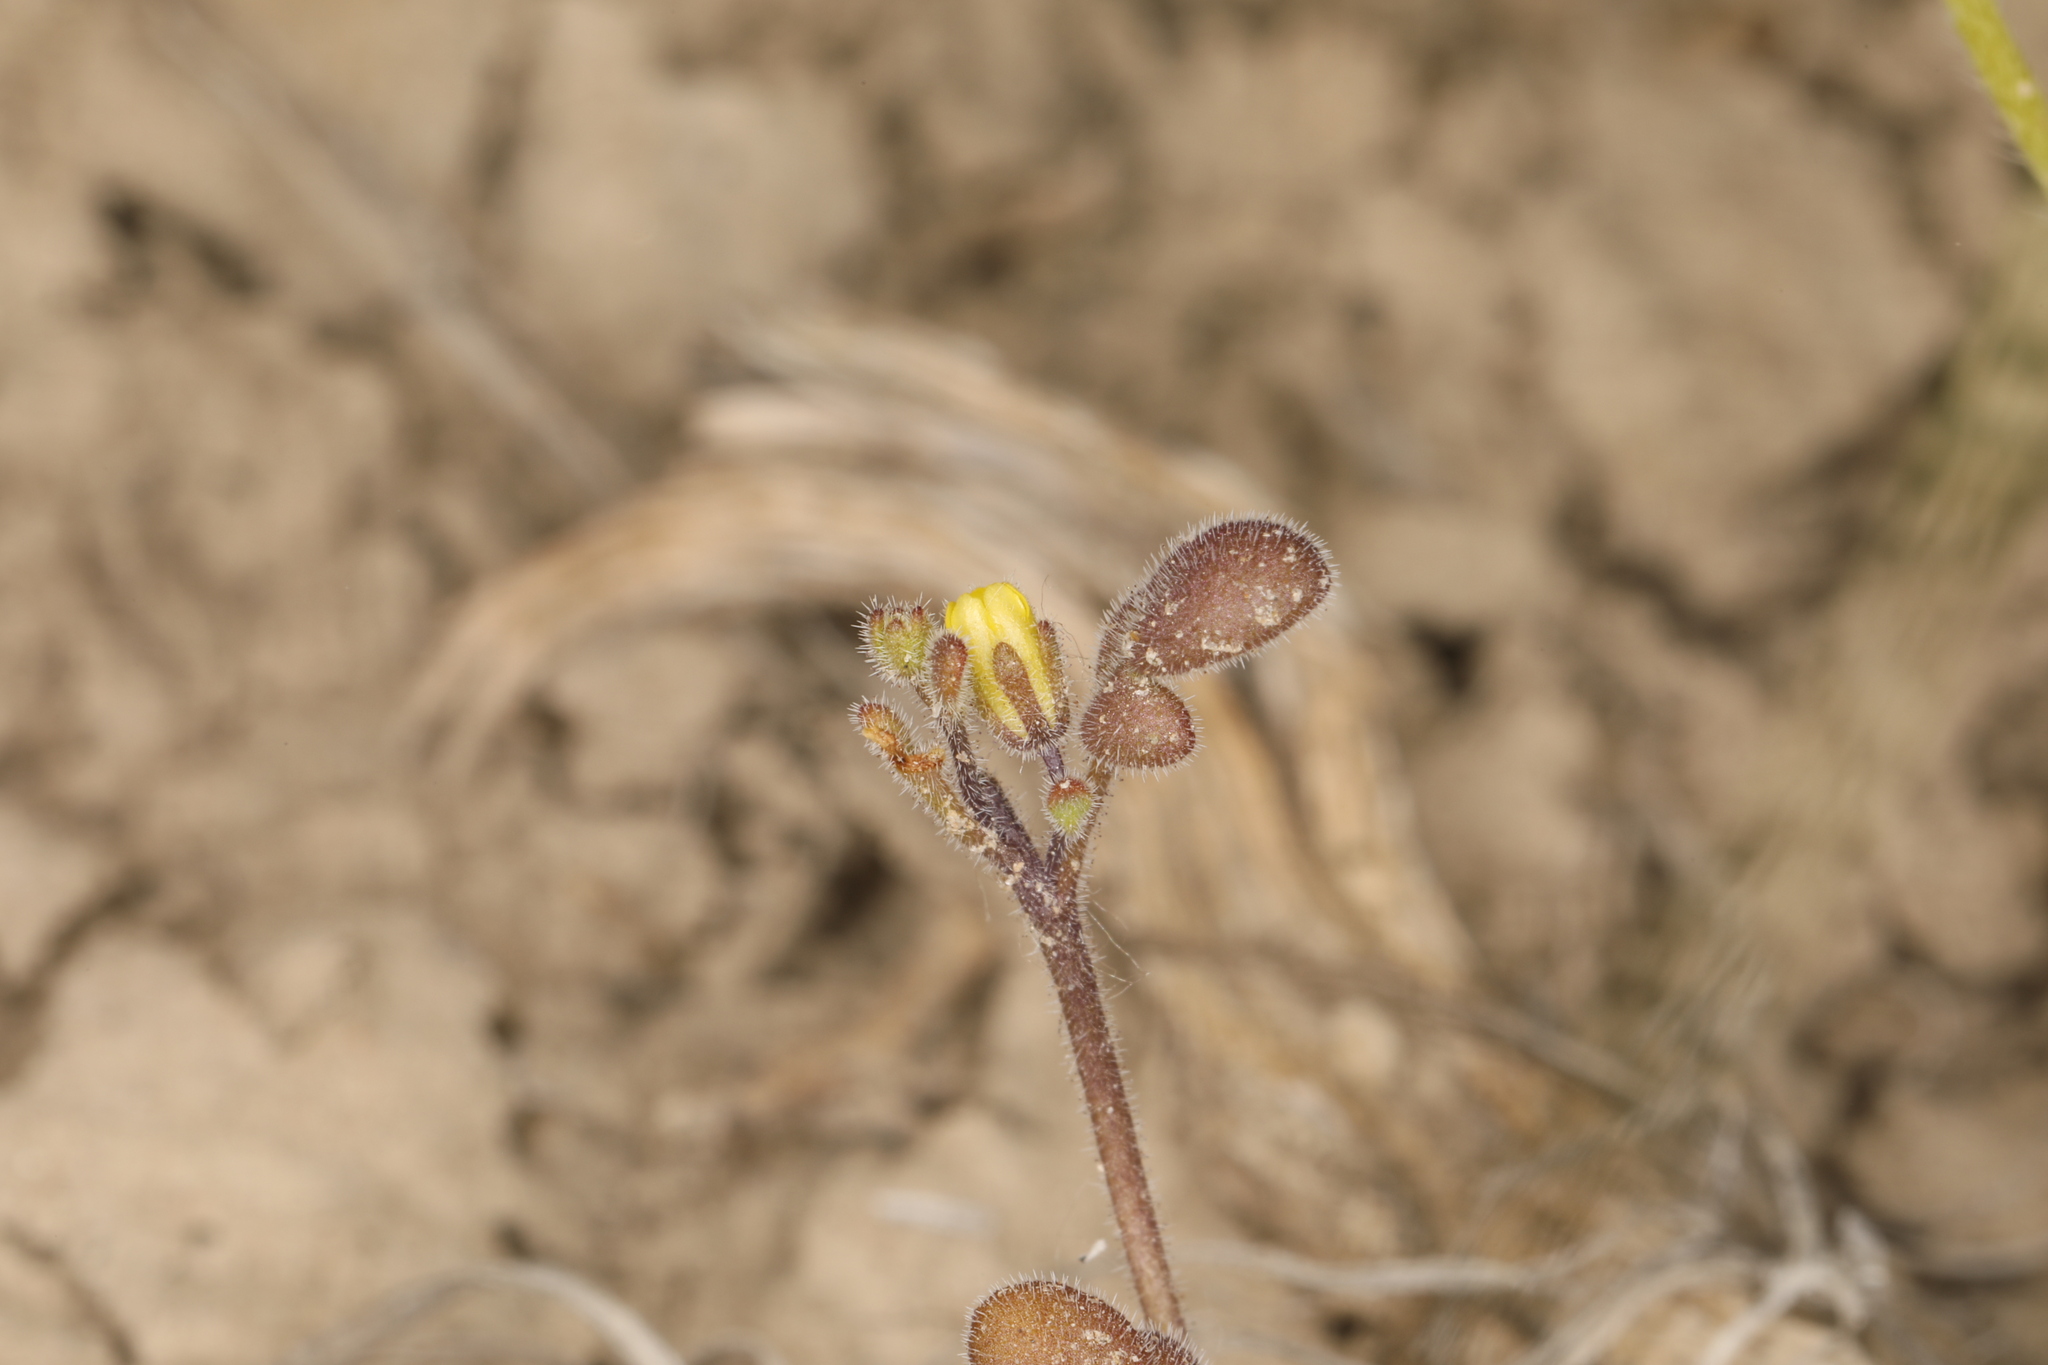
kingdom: Plantae
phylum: Tracheophyta
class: Magnoliopsida
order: Boraginales
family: Hydrophyllaceae
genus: Phacelia
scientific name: Phacelia inyoensis
